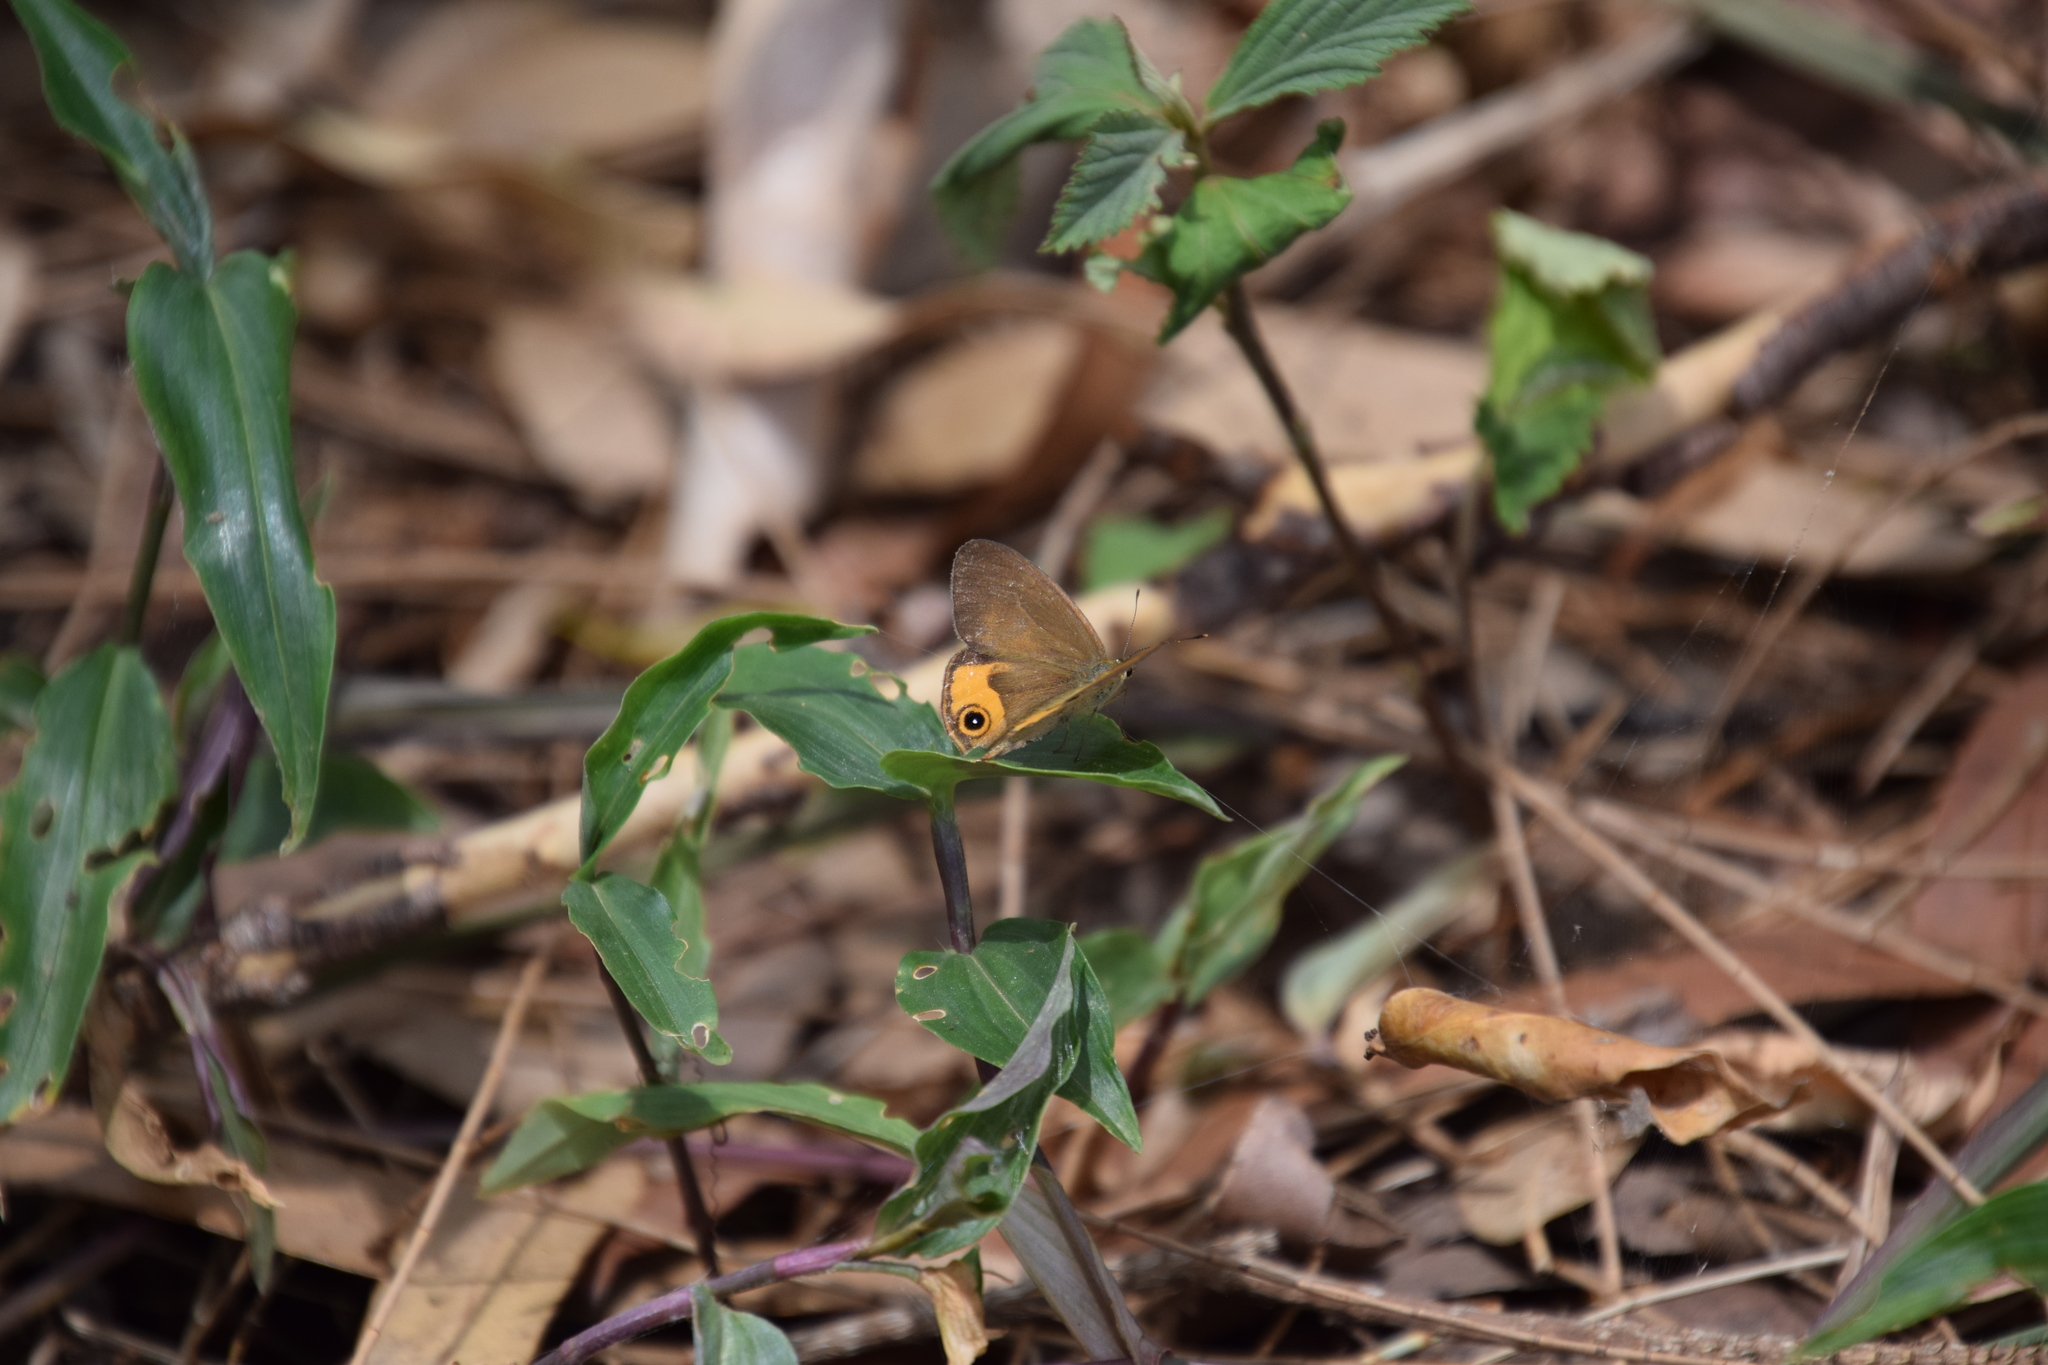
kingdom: Animalia
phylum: Arthropoda
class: Insecta
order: Lepidoptera
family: Nymphalidae
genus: Hypocysta
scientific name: Hypocysta metirius
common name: Brown ringlet
